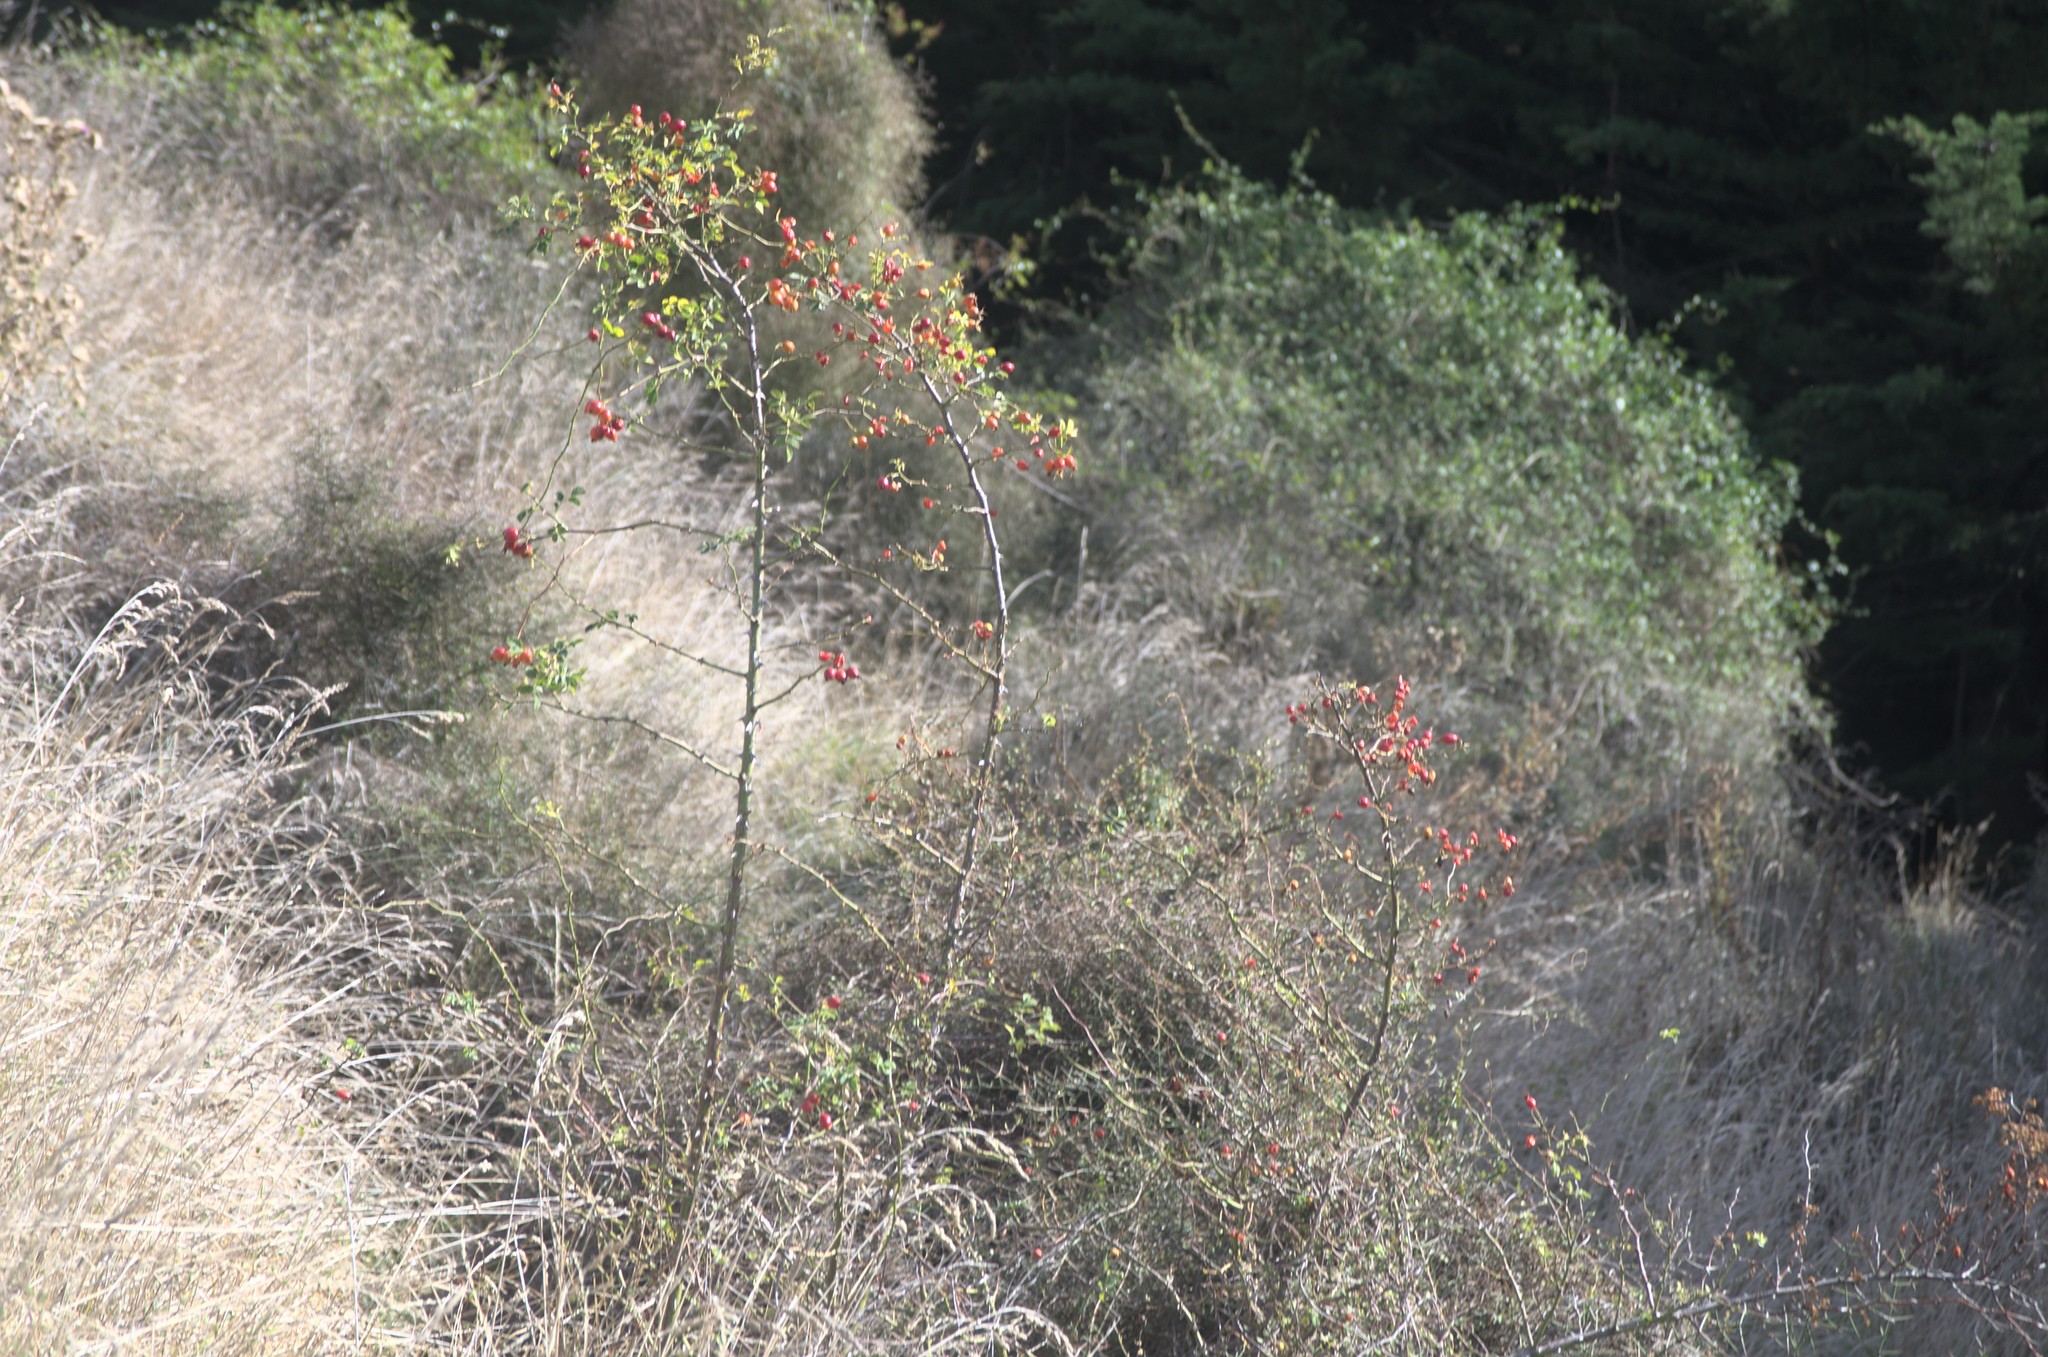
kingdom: Plantae
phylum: Tracheophyta
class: Magnoliopsida
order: Rosales
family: Rosaceae
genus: Rosa
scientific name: Rosa rubiginosa
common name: Sweet-briar
